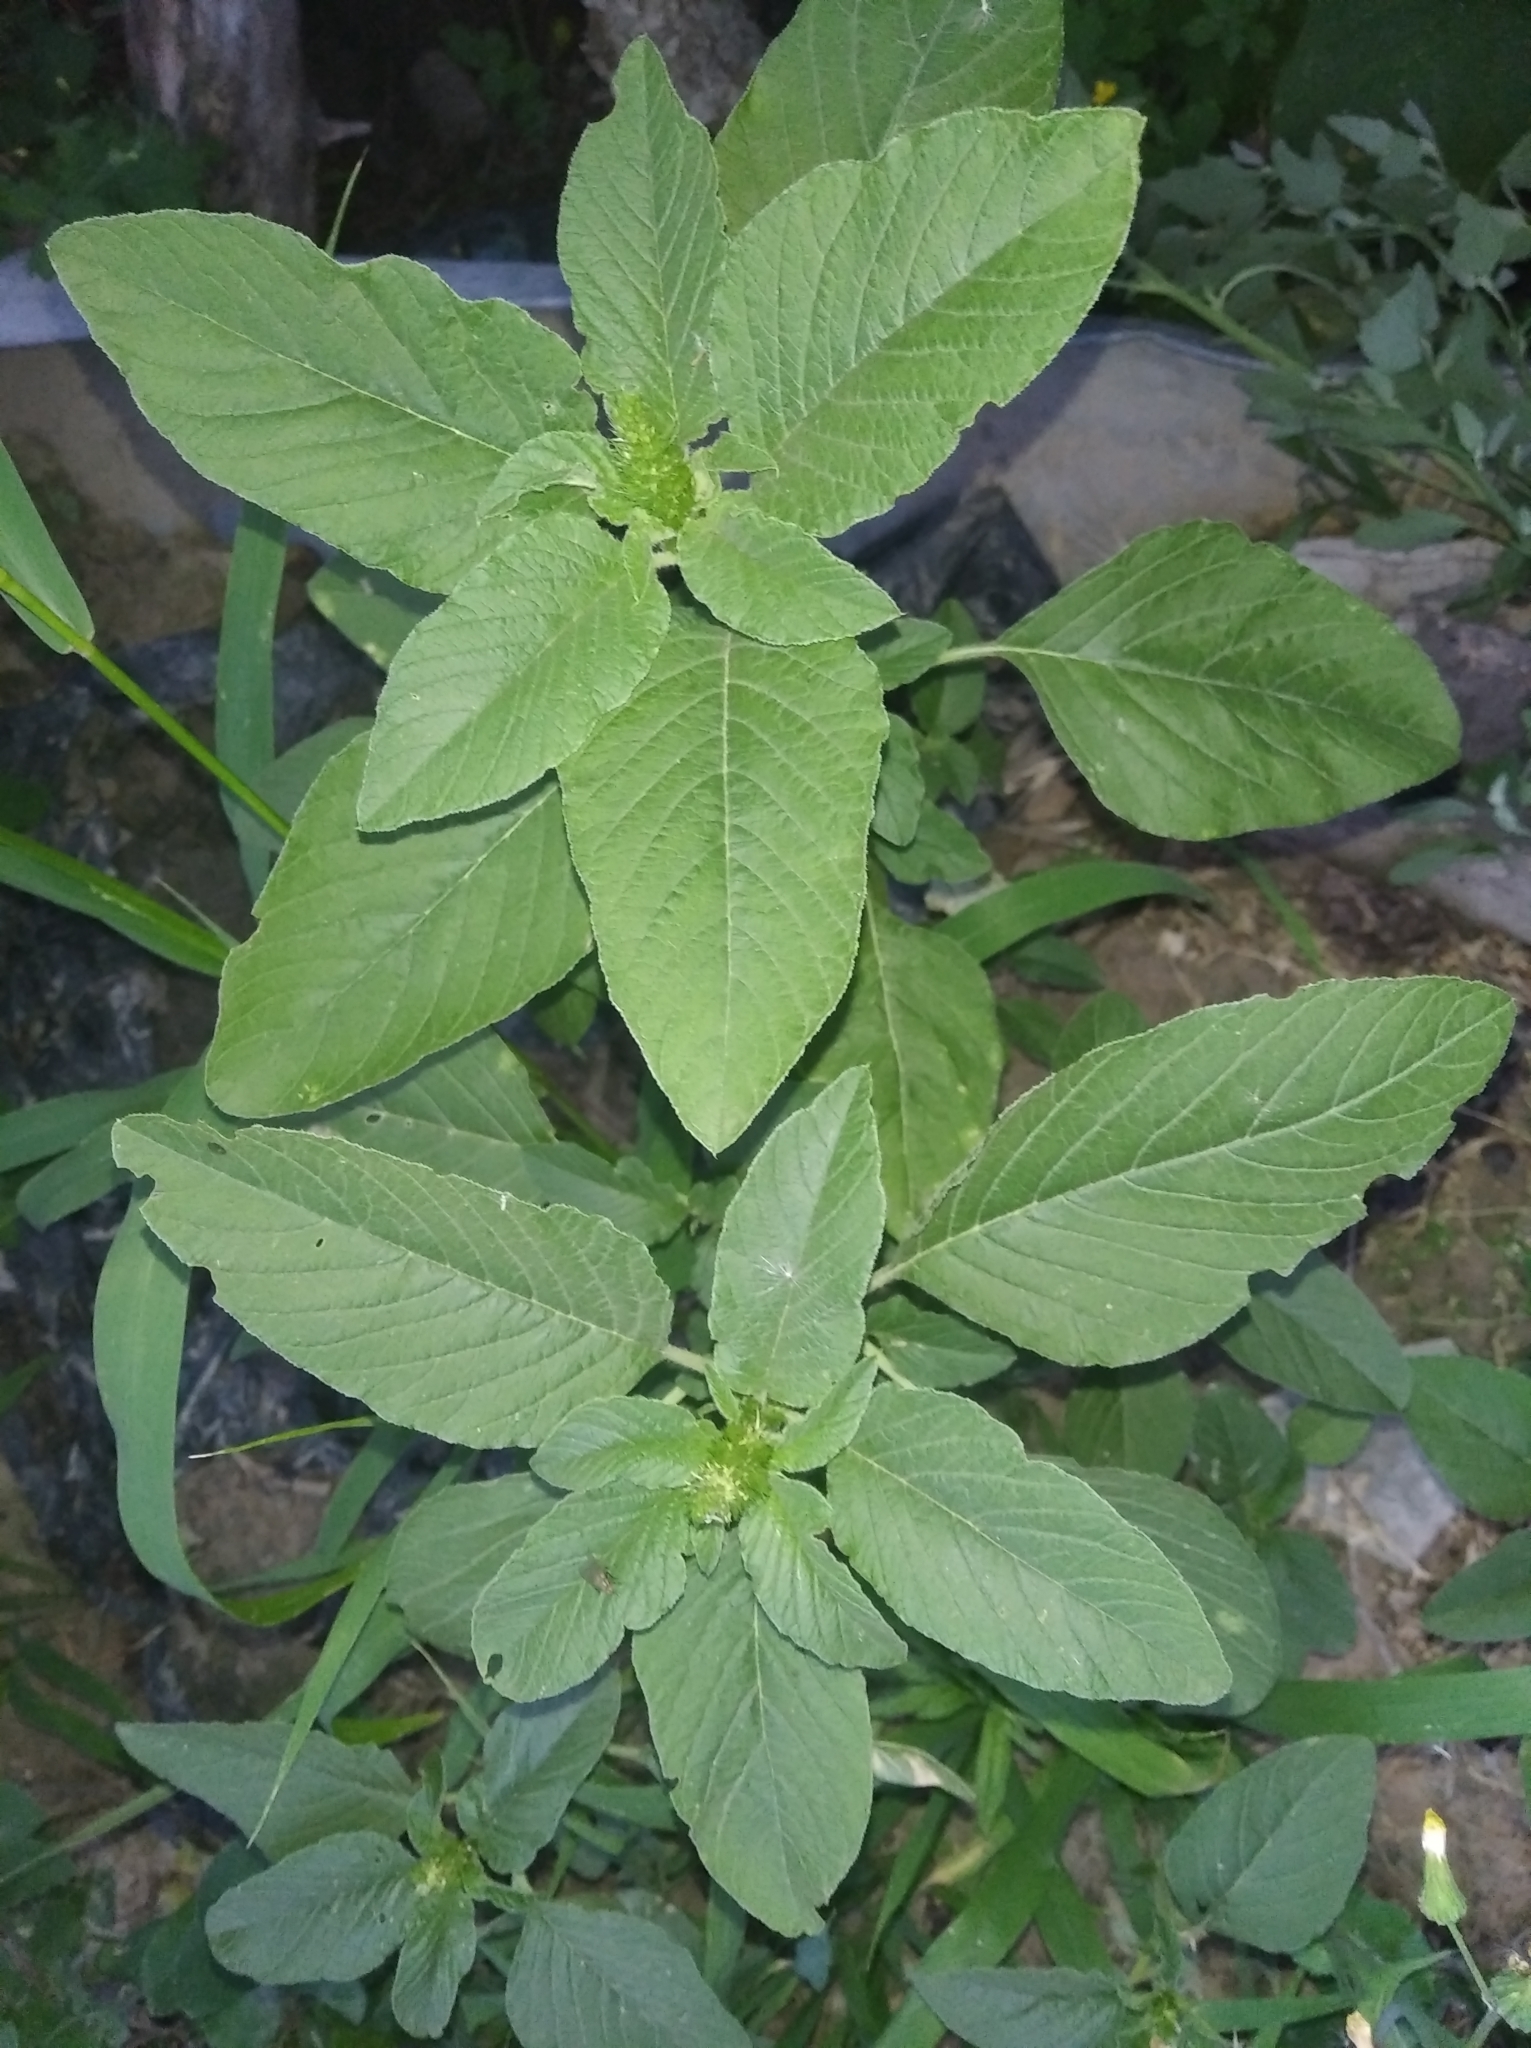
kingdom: Plantae
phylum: Tracheophyta
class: Magnoliopsida
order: Caryophyllales
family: Amaranthaceae
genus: Amaranthus
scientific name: Amaranthus retroflexus
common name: Redroot amaranth
